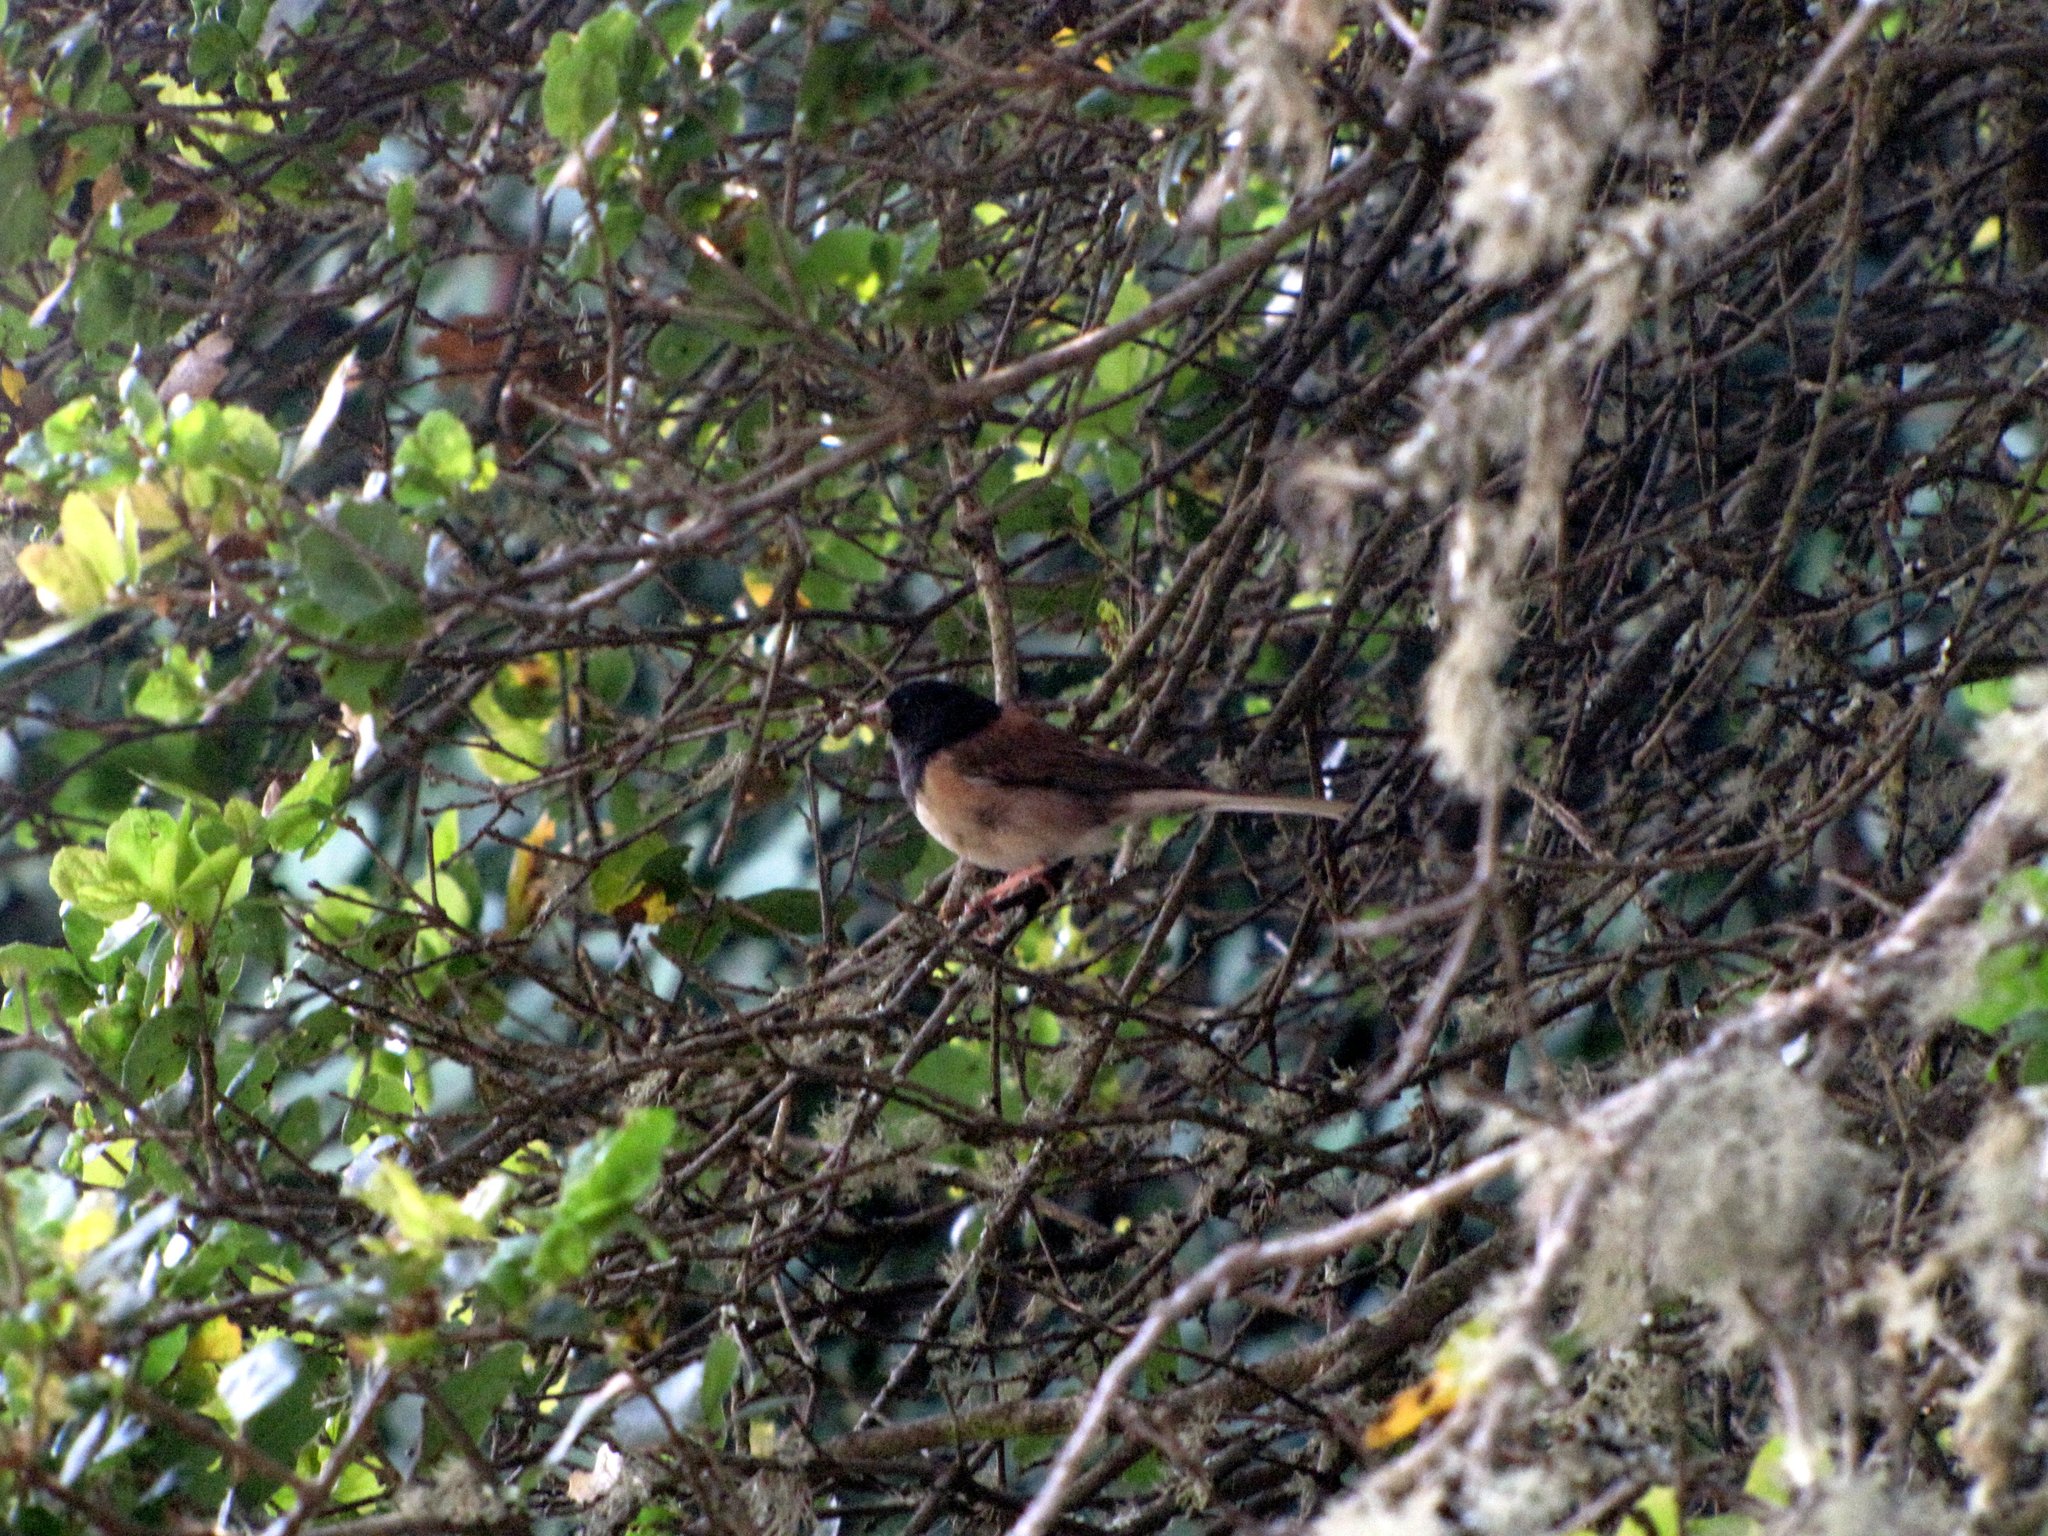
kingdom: Animalia
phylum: Chordata
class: Aves
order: Passeriformes
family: Passerellidae
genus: Junco
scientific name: Junco hyemalis
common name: Dark-eyed junco
